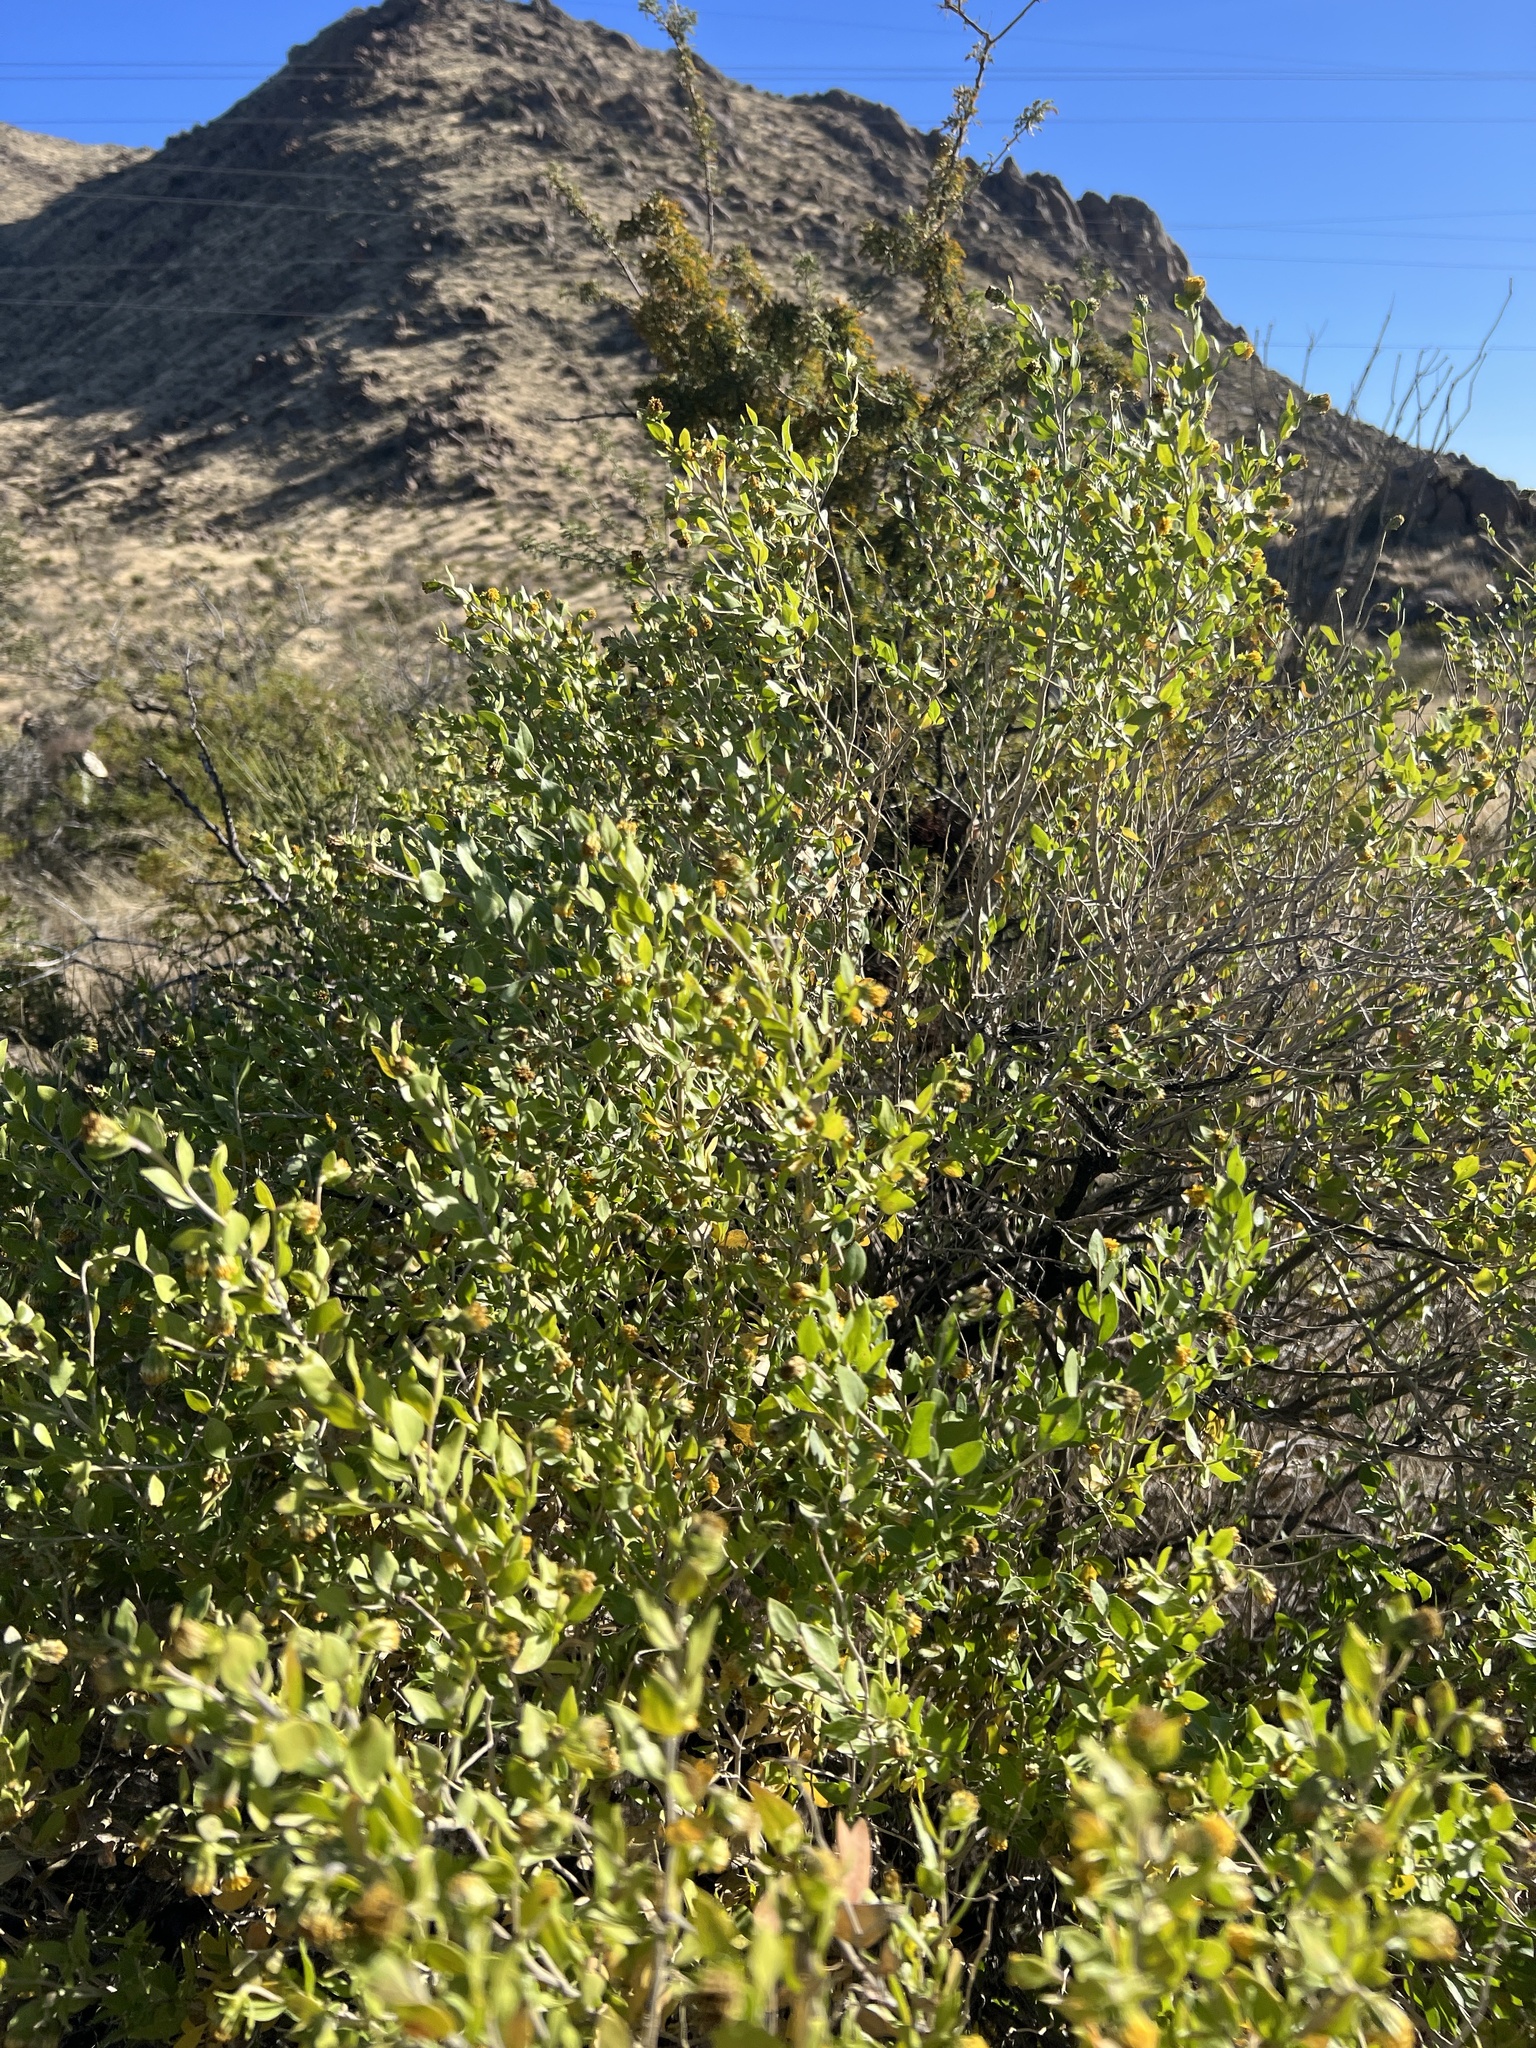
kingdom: Plantae
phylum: Tracheophyta
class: Magnoliopsida
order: Asterales
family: Asteraceae
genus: Flourensia
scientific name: Flourensia cernua
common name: Varnishbush
